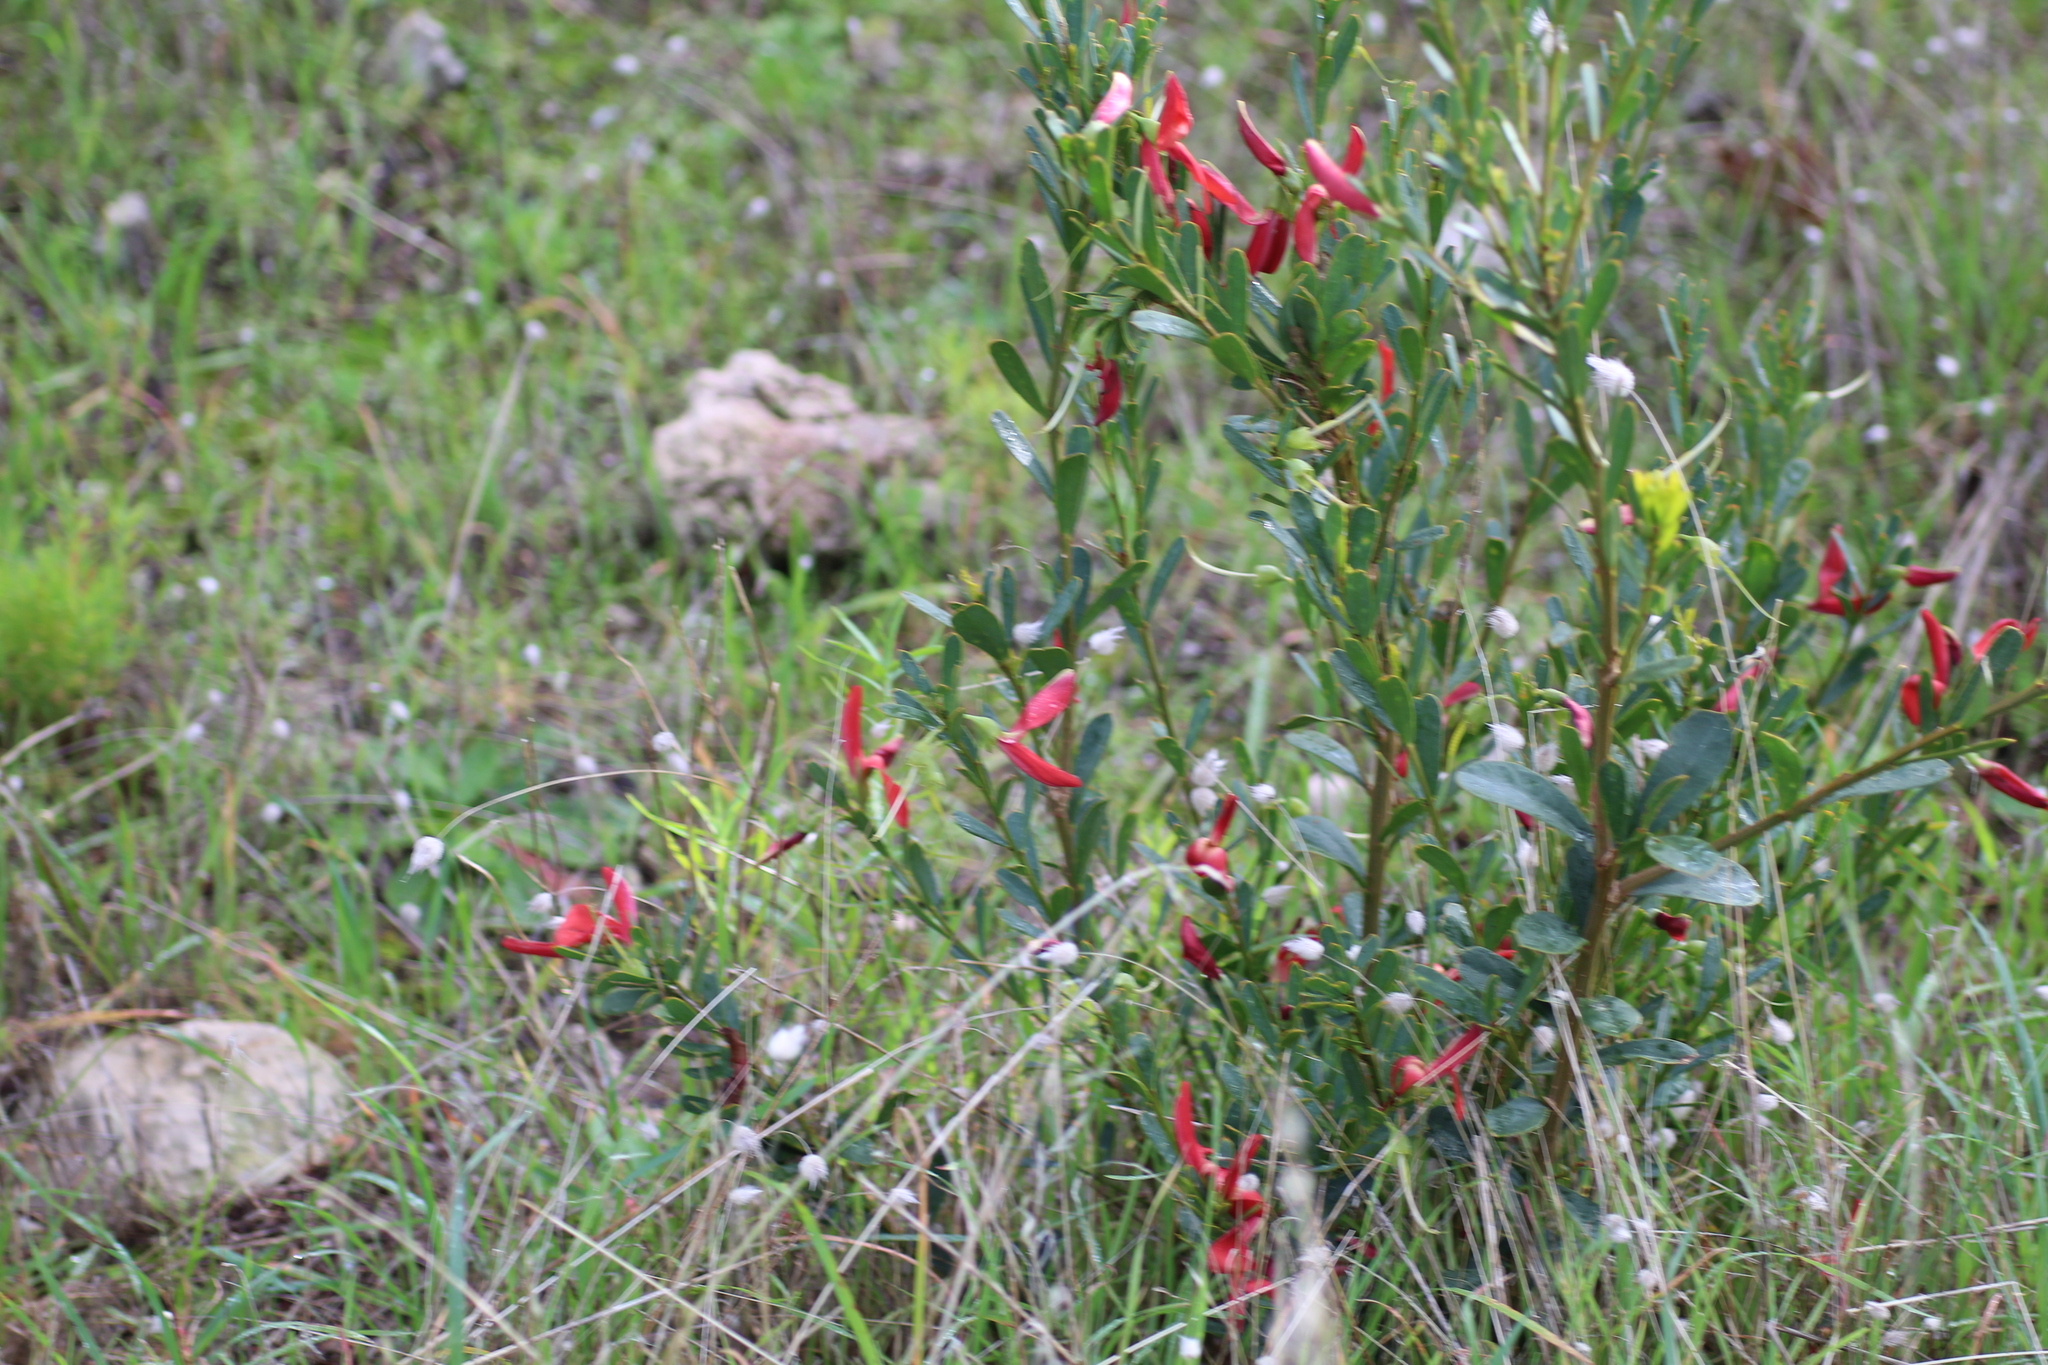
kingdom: Plantae
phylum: Tracheophyta
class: Magnoliopsida
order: Fabales
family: Fabaceae
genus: Templetonia
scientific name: Templetonia retusa
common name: Cockies'-tongue
